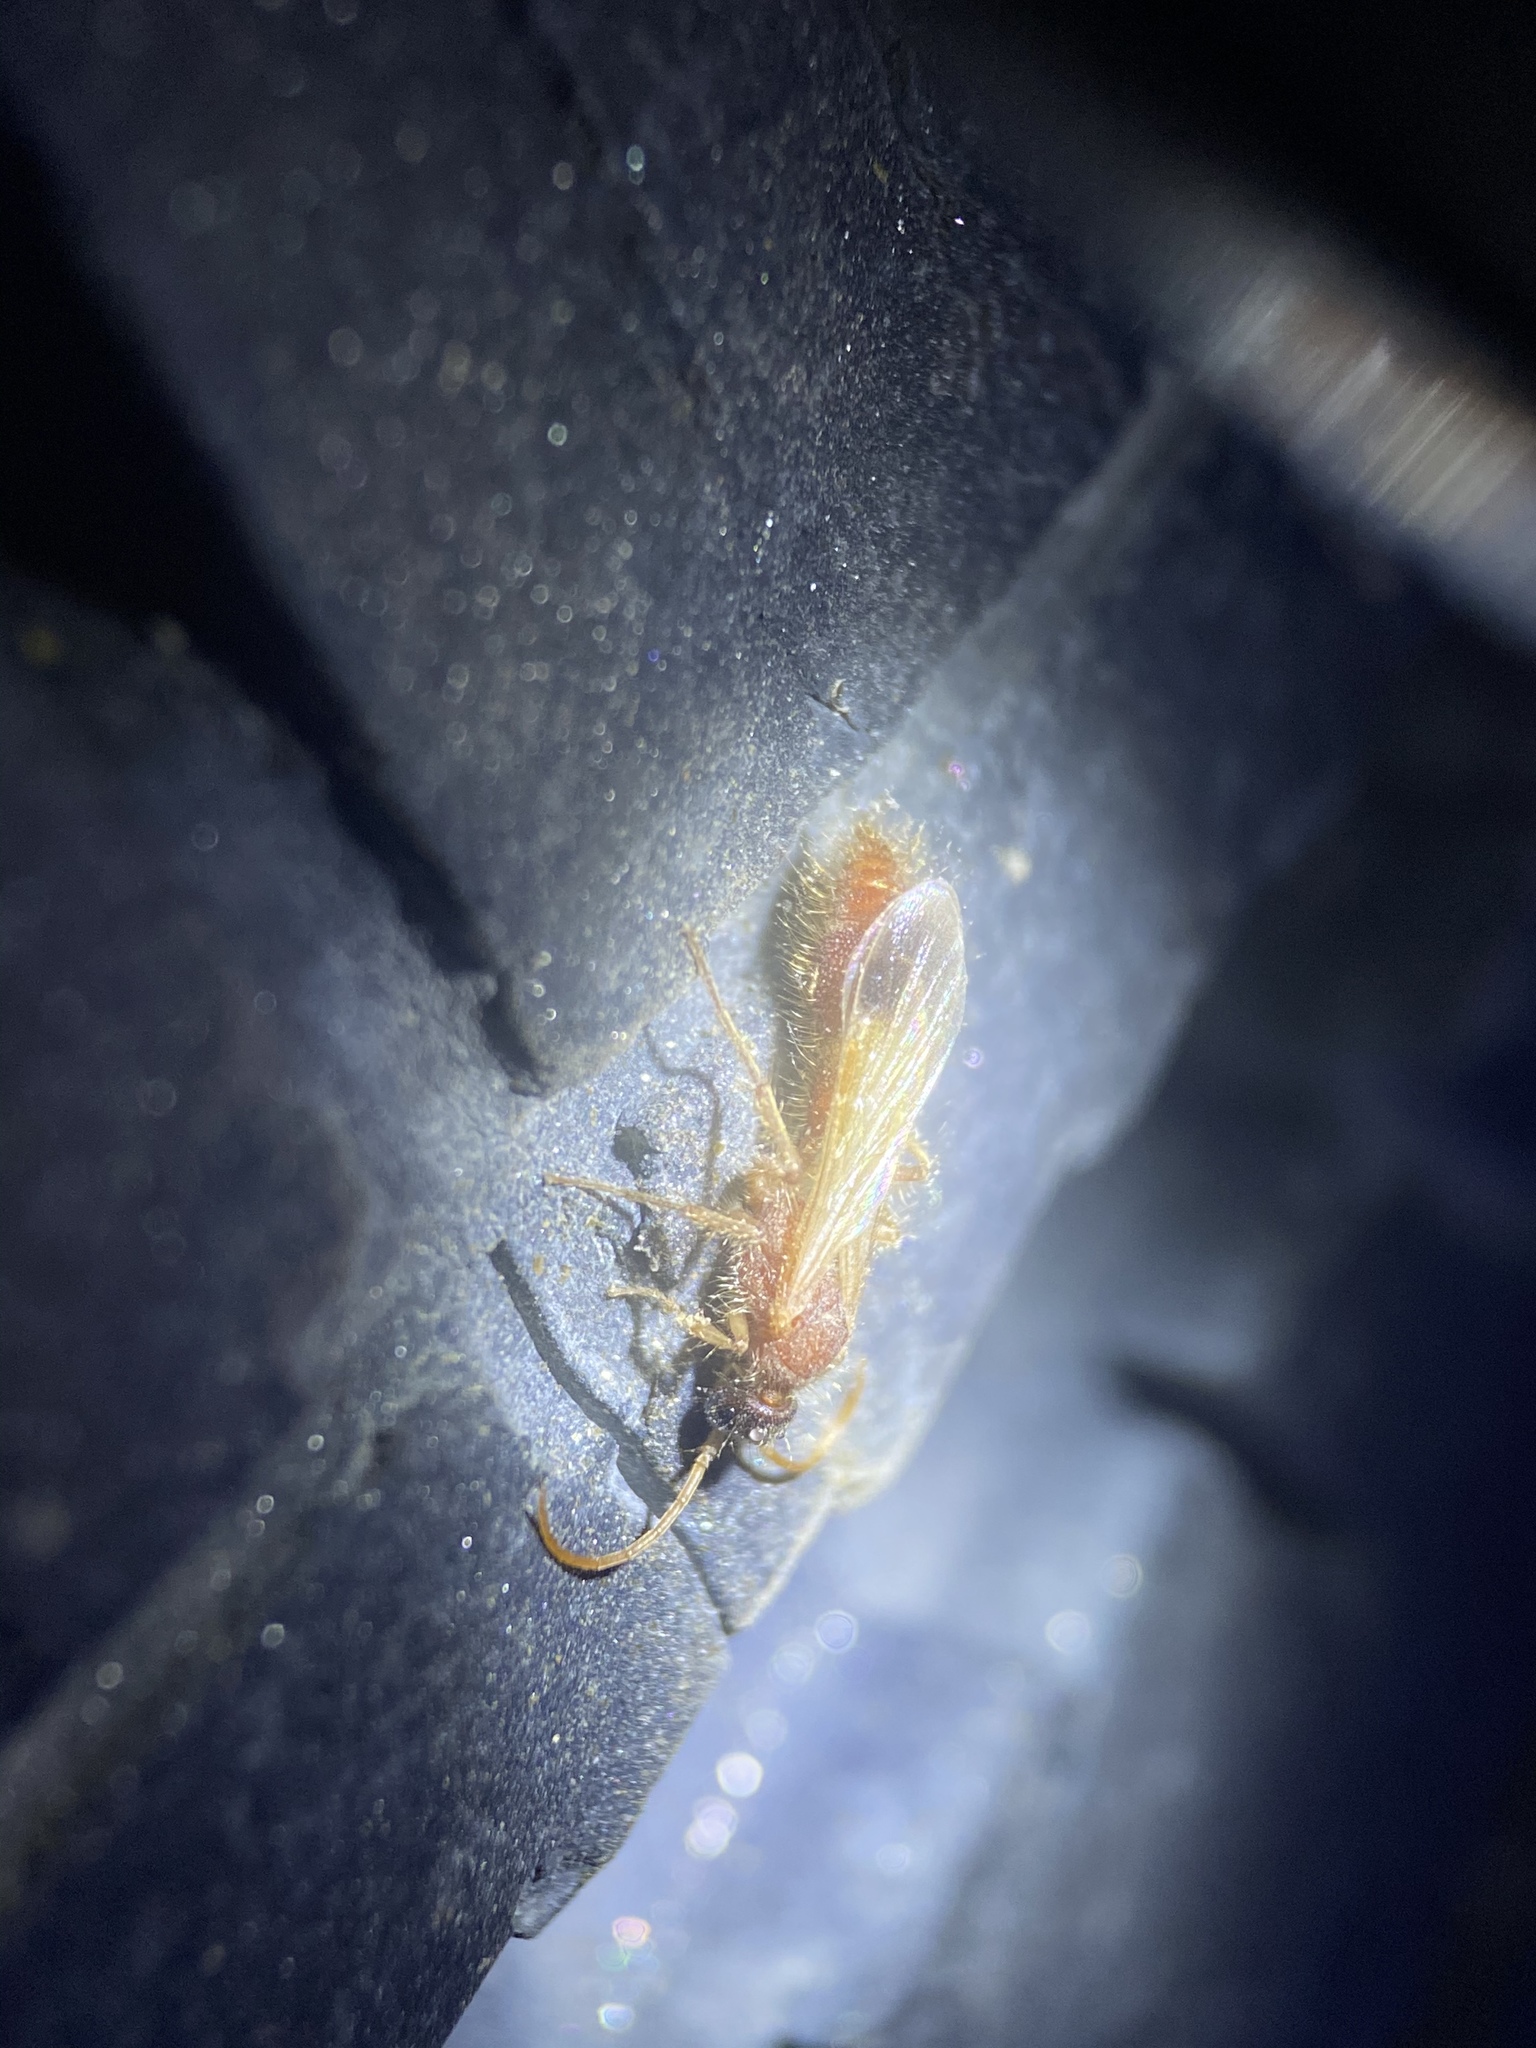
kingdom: Animalia
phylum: Arthropoda
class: Insecta
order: Hymenoptera
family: Chyphotidae
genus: Chyphotes
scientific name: Chyphotes
